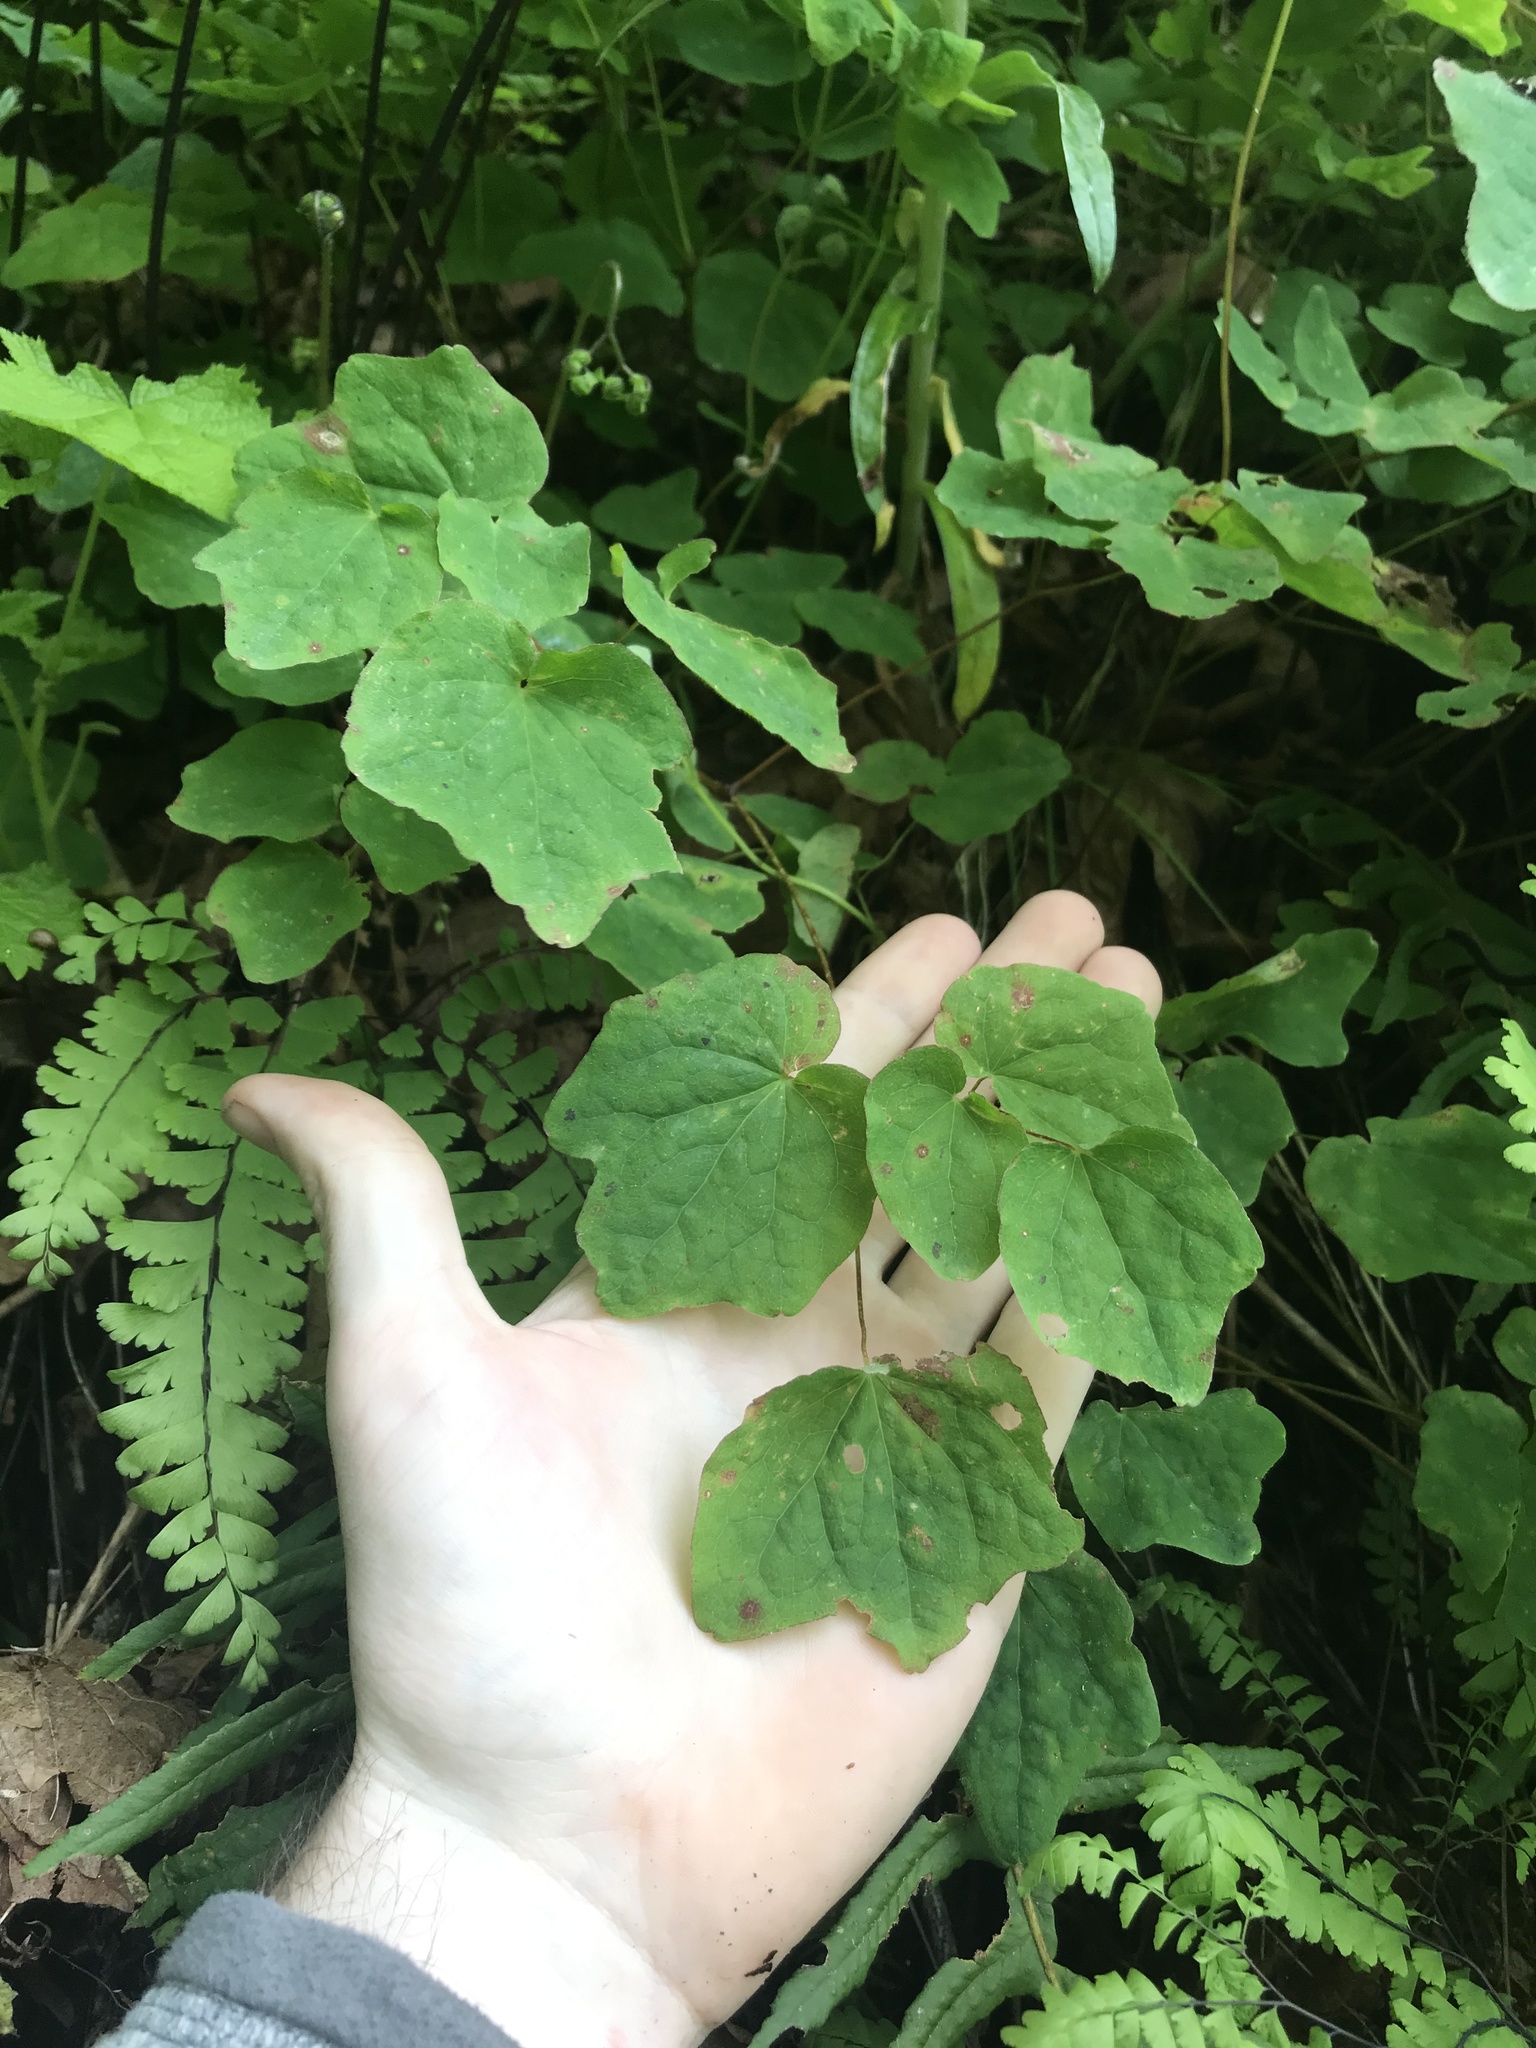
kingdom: Plantae
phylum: Tracheophyta
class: Magnoliopsida
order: Ranunculales
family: Berberidaceae
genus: Vancouveria
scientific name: Vancouveria hexandra
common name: Northern inside-out-flower
